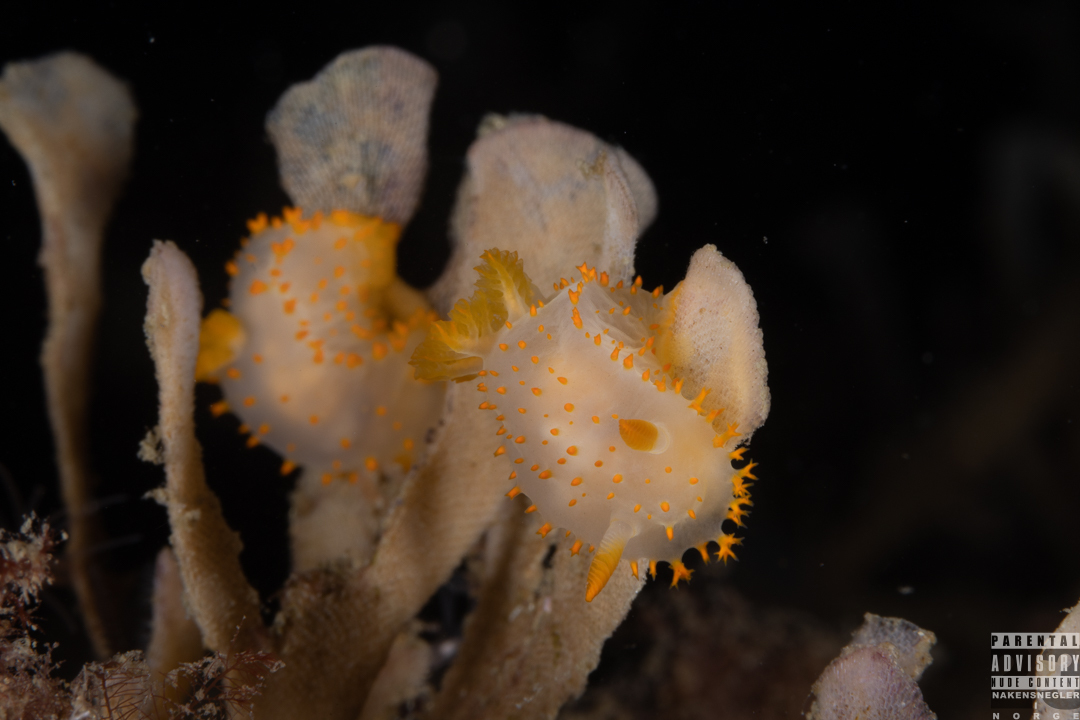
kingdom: Animalia
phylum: Mollusca
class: Gastropoda
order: Nudibranchia
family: Polyceridae
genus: Crimora
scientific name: Crimora papillata
